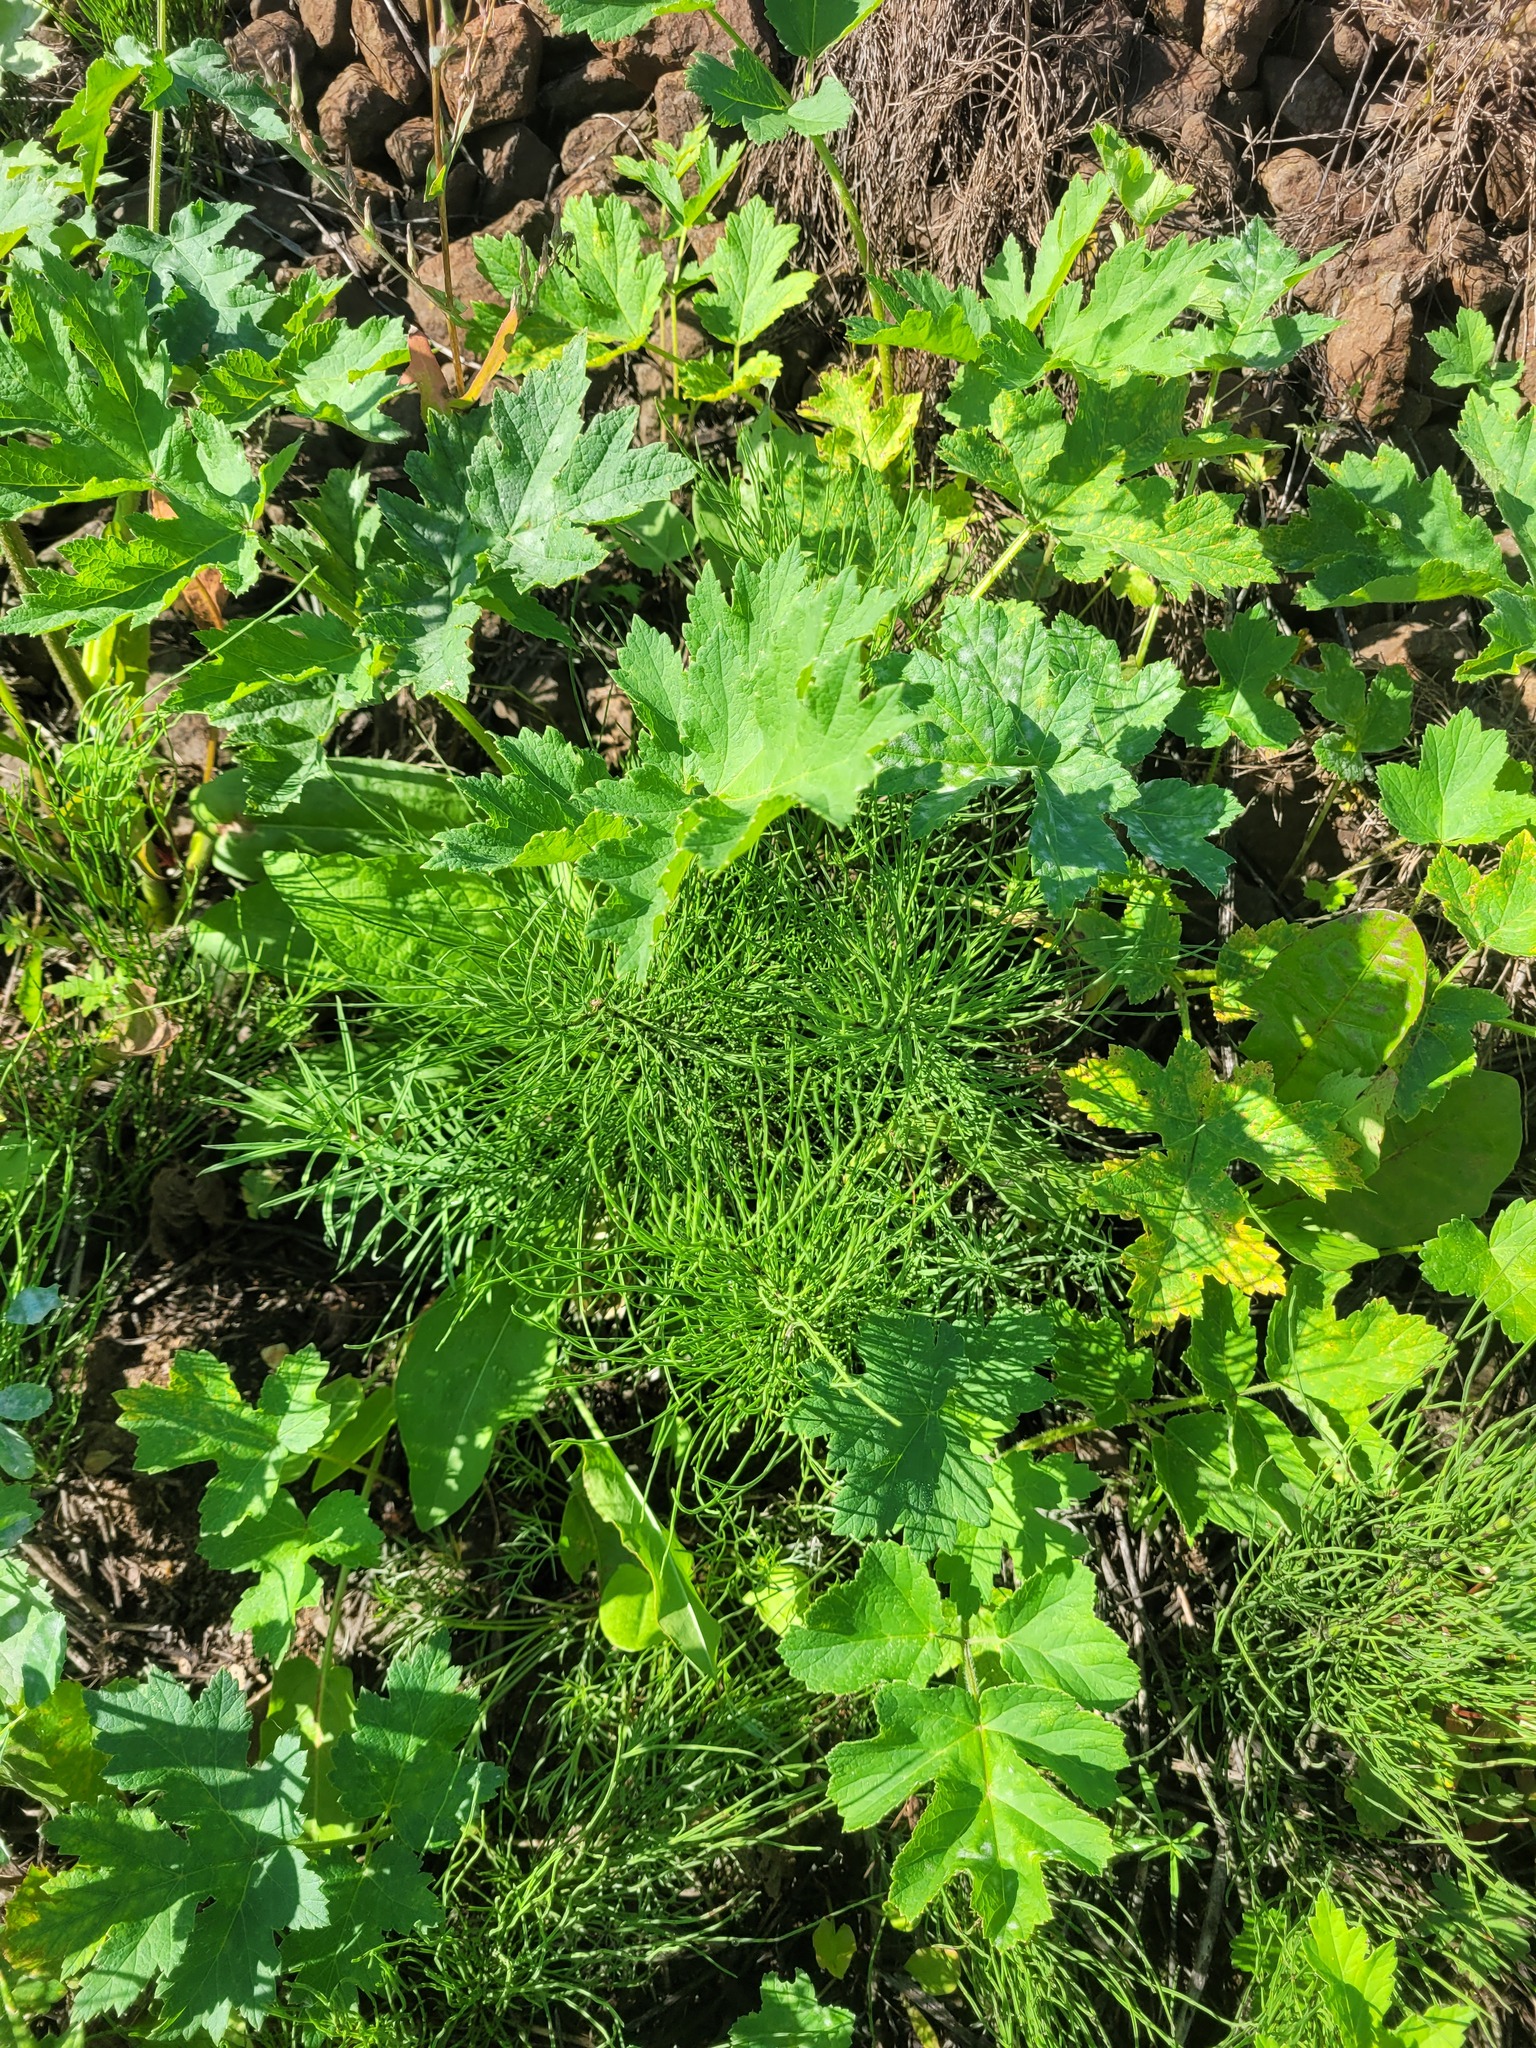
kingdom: Plantae
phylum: Tracheophyta
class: Polypodiopsida
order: Equisetales
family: Equisetaceae
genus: Equisetum
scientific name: Equisetum arvense
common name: Field horsetail
